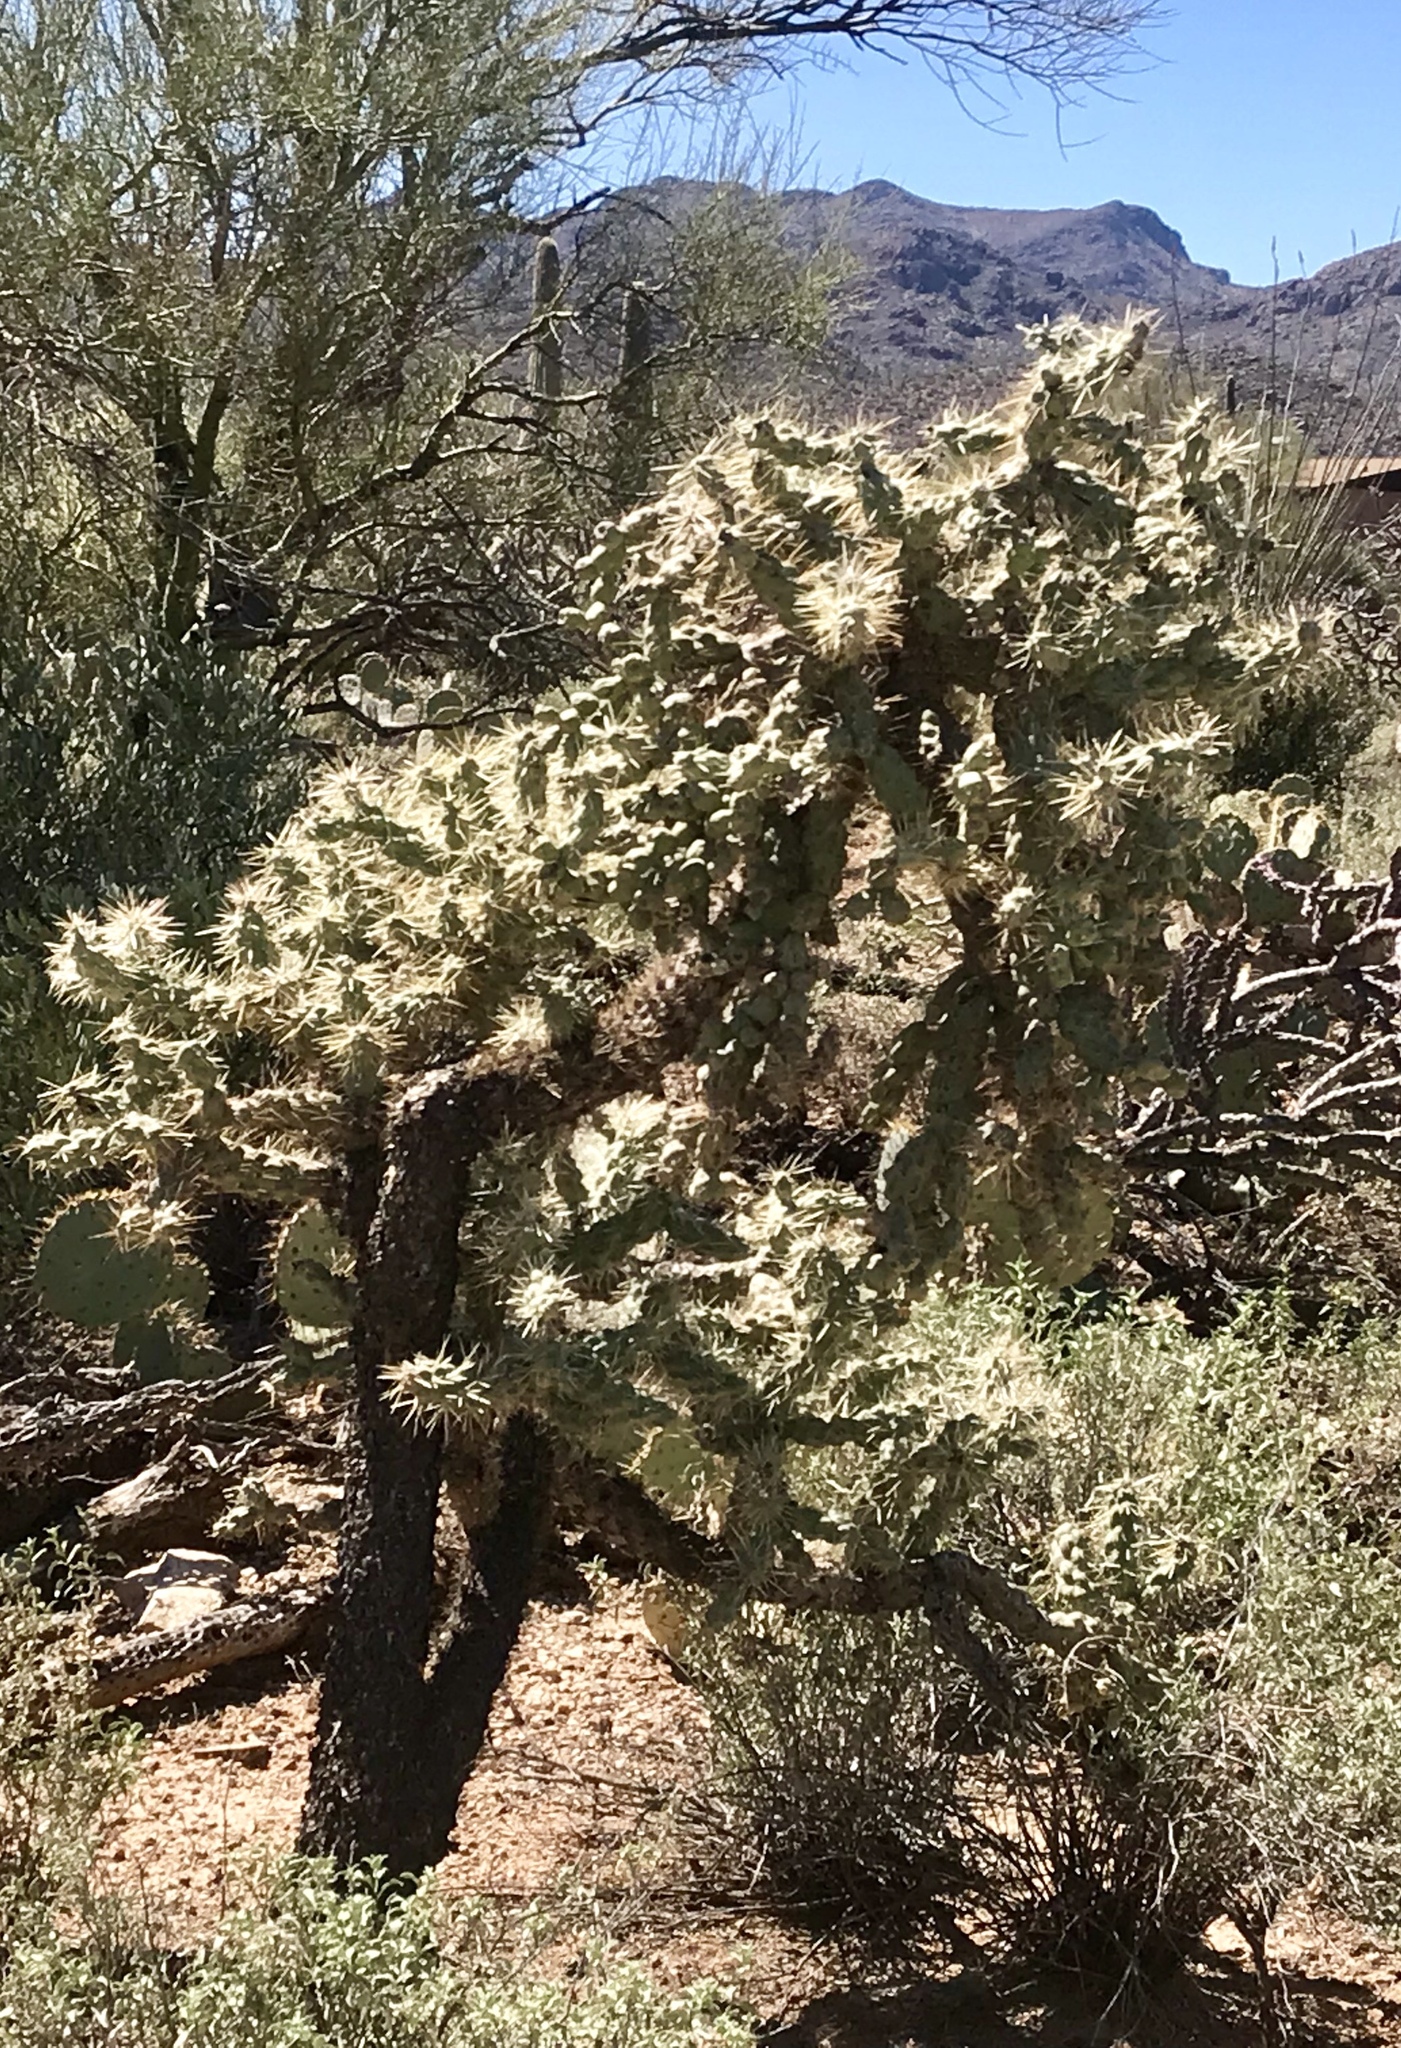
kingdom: Plantae
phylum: Tracheophyta
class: Magnoliopsida
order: Caryophyllales
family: Cactaceae
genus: Cylindropuntia
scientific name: Cylindropuntia fulgida
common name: Jumping cholla
